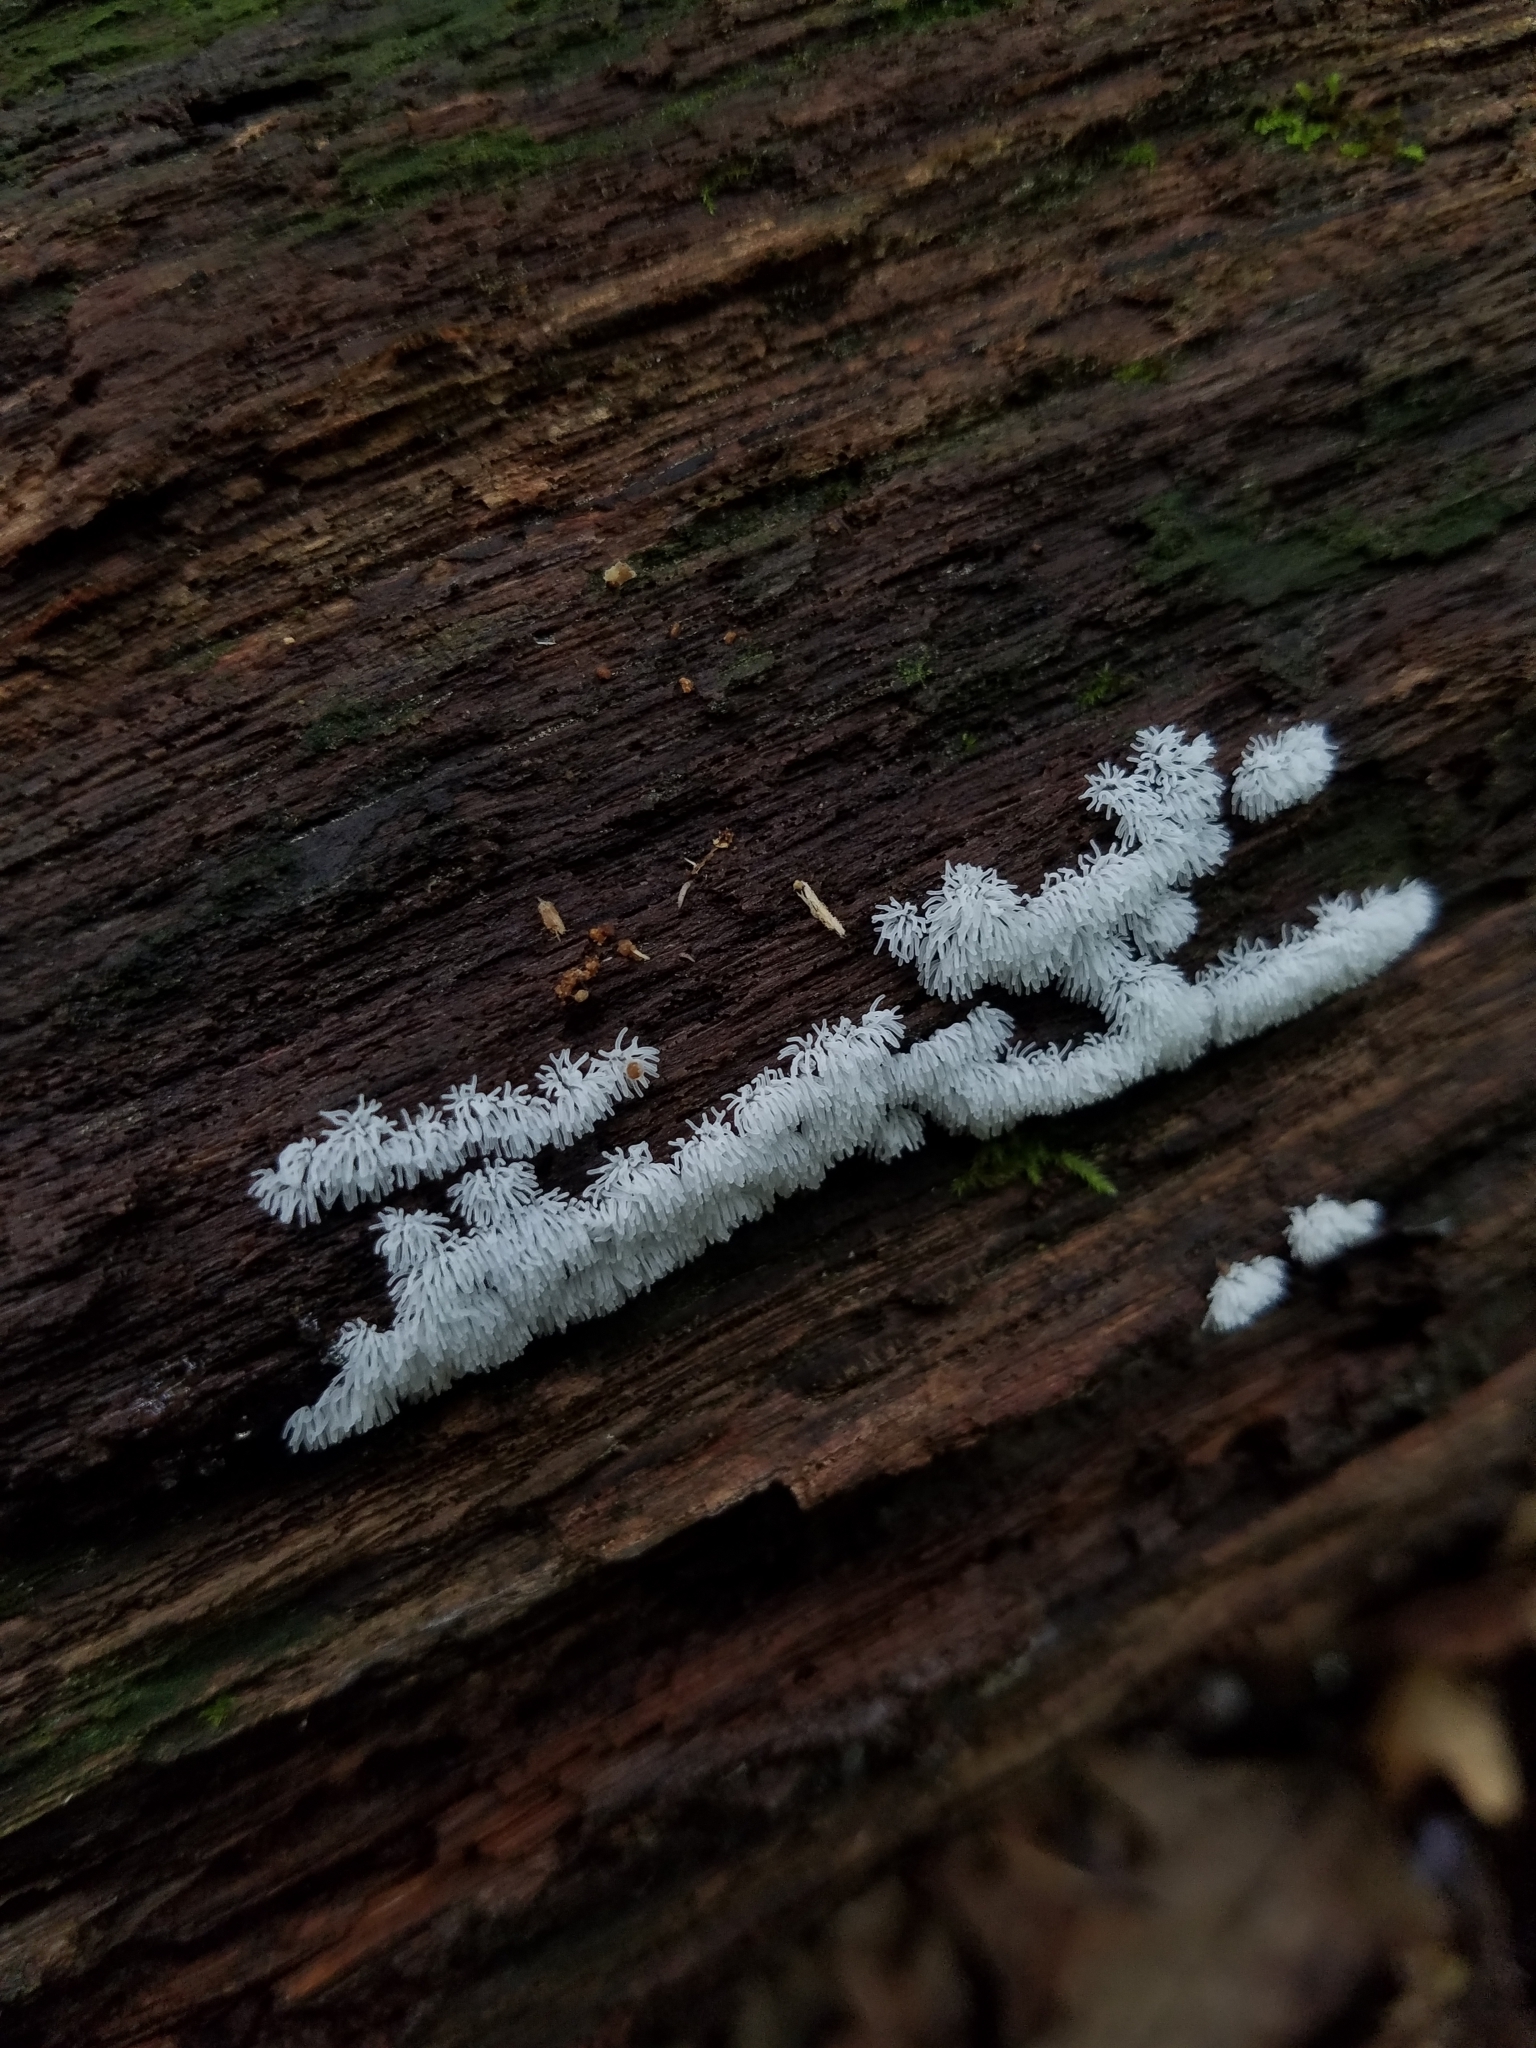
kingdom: Protozoa
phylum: Mycetozoa
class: Protosteliomycetes
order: Ceratiomyxales
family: Ceratiomyxaceae
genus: Ceratiomyxa
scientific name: Ceratiomyxa fruticulosa
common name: Honeycomb coral slime mold
